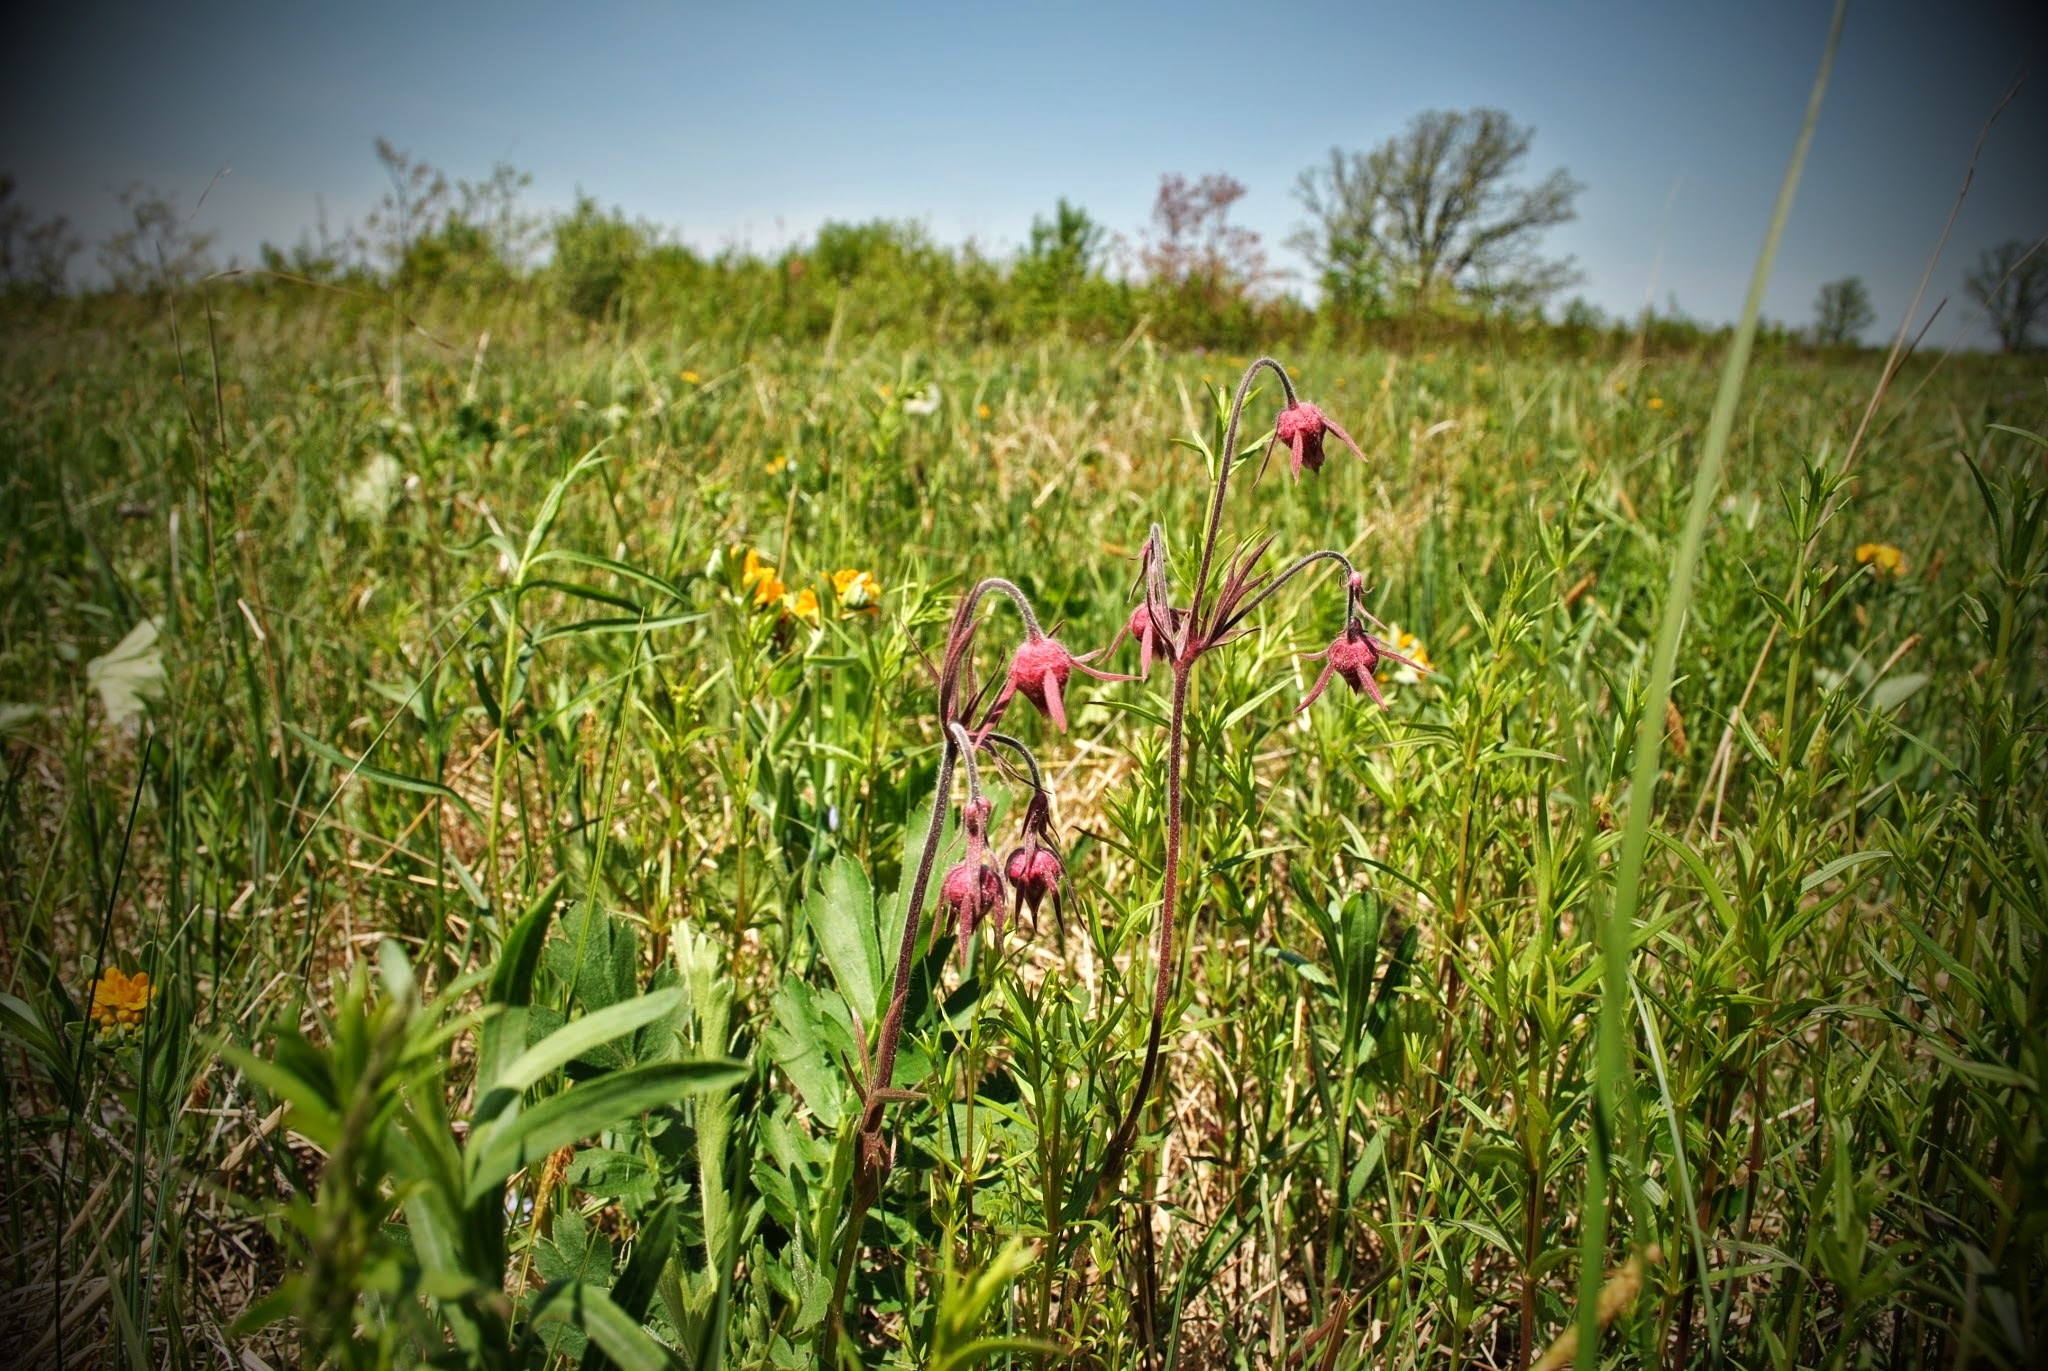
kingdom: Plantae
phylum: Tracheophyta
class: Magnoliopsida
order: Rosales
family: Rosaceae
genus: Geum
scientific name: Geum triflorum
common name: Old man's whiskers
